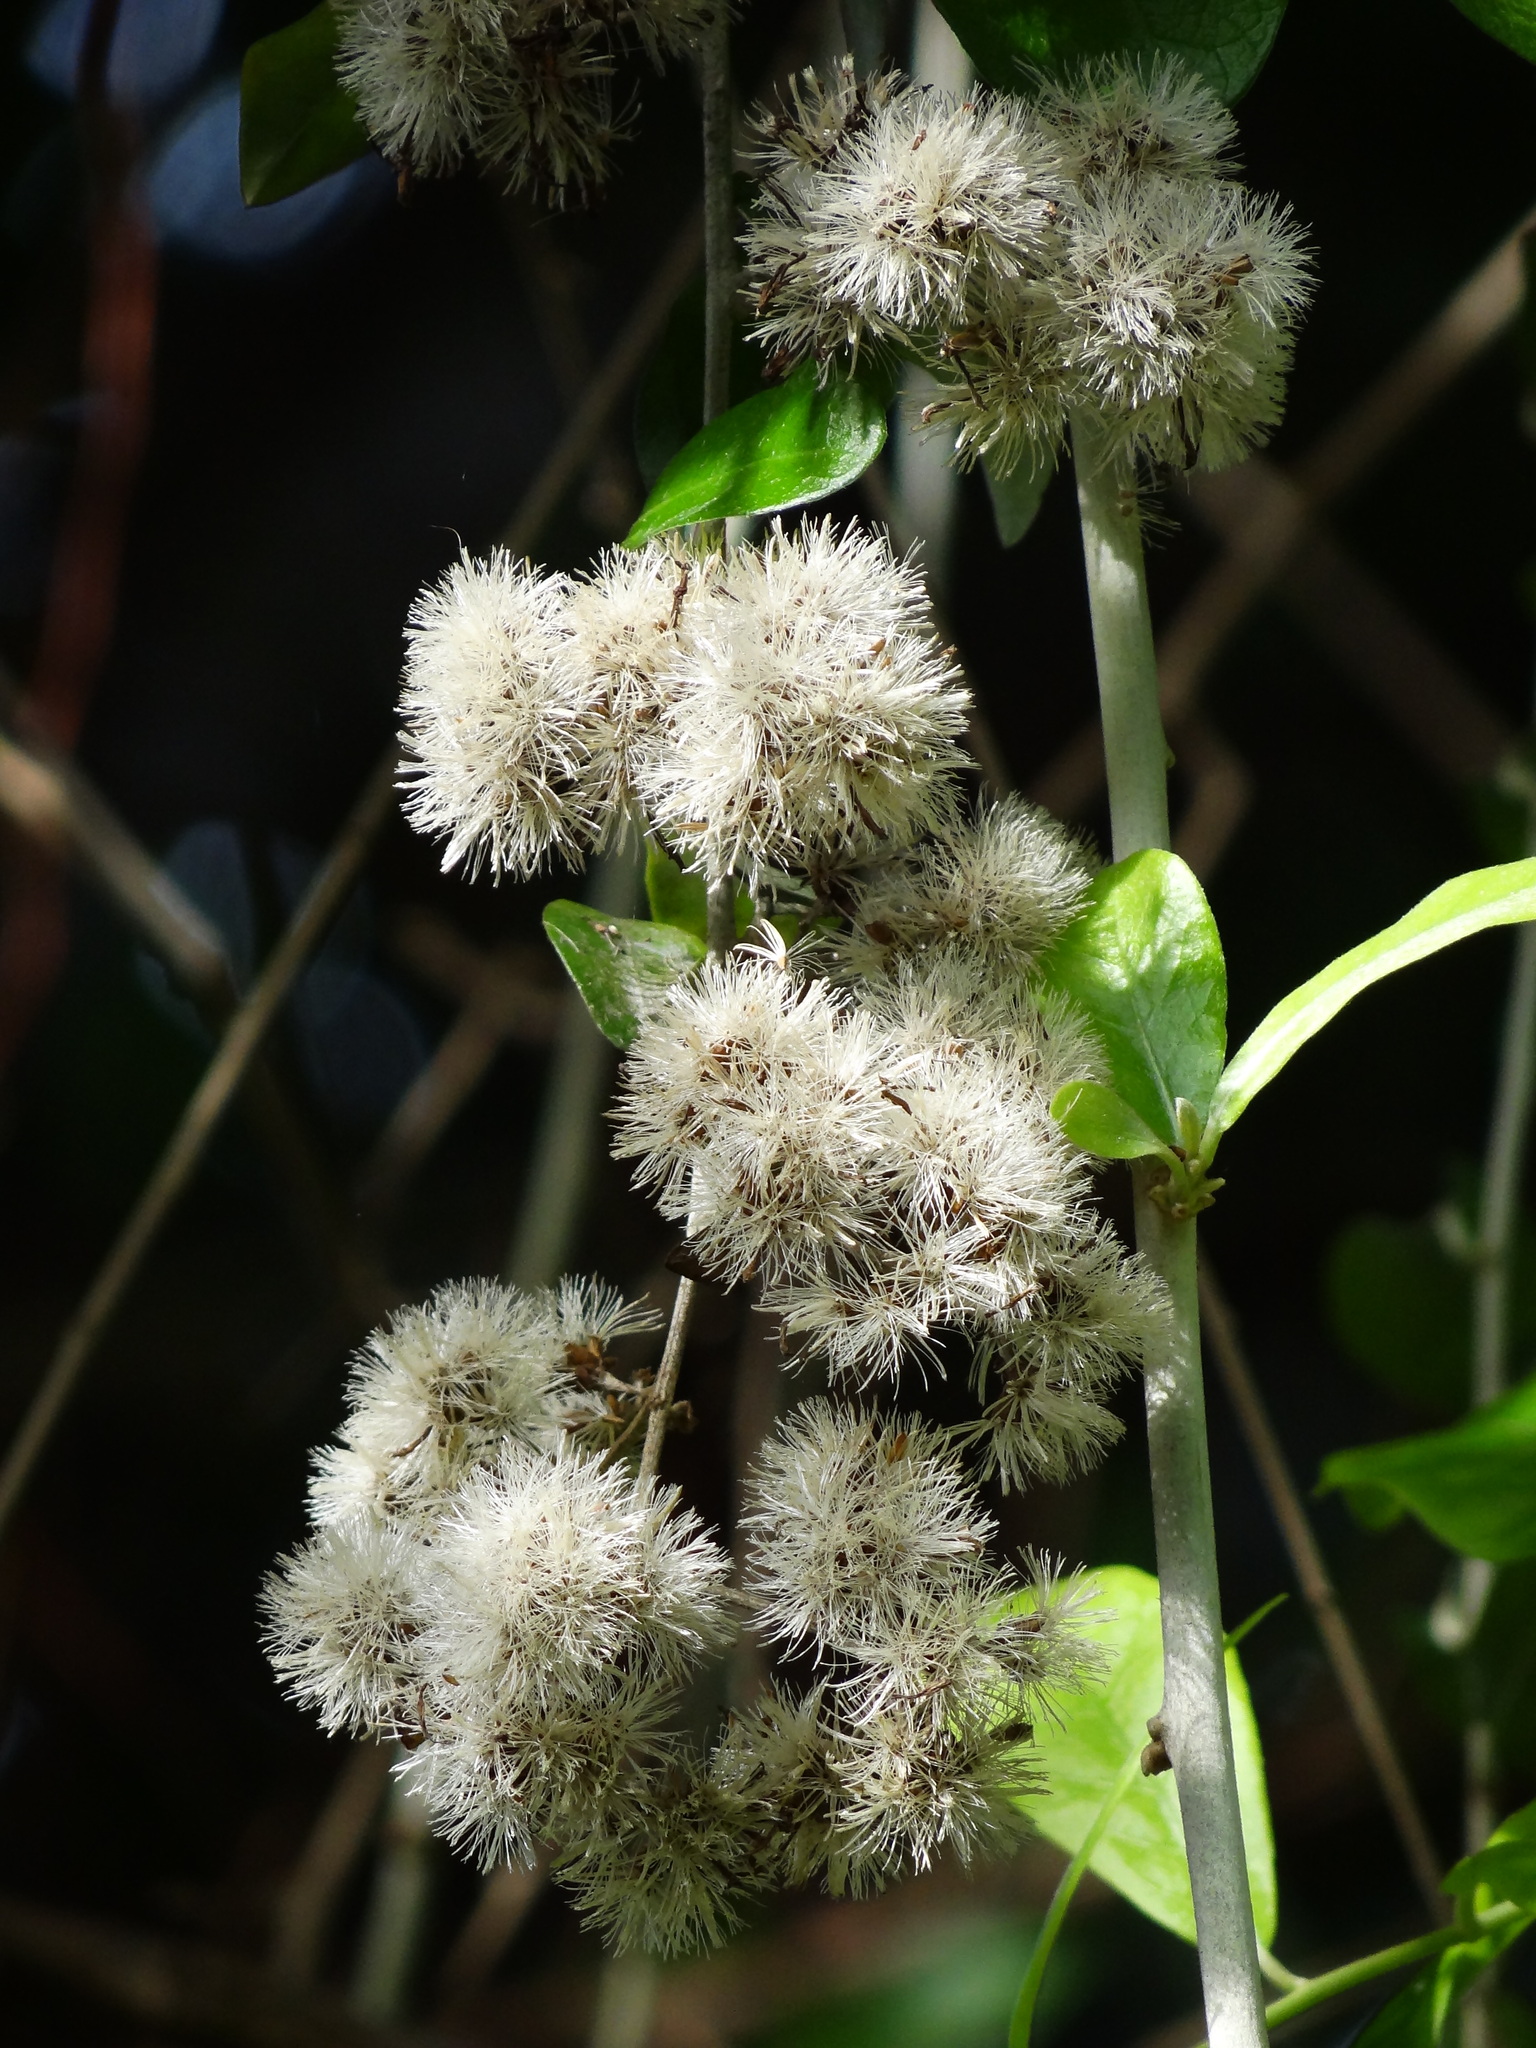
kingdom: Plantae
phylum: Tracheophyta
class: Magnoliopsida
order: Asterales
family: Asteraceae
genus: Tarlmounia
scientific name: Tarlmounia elliptica
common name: Kheua sa lot
